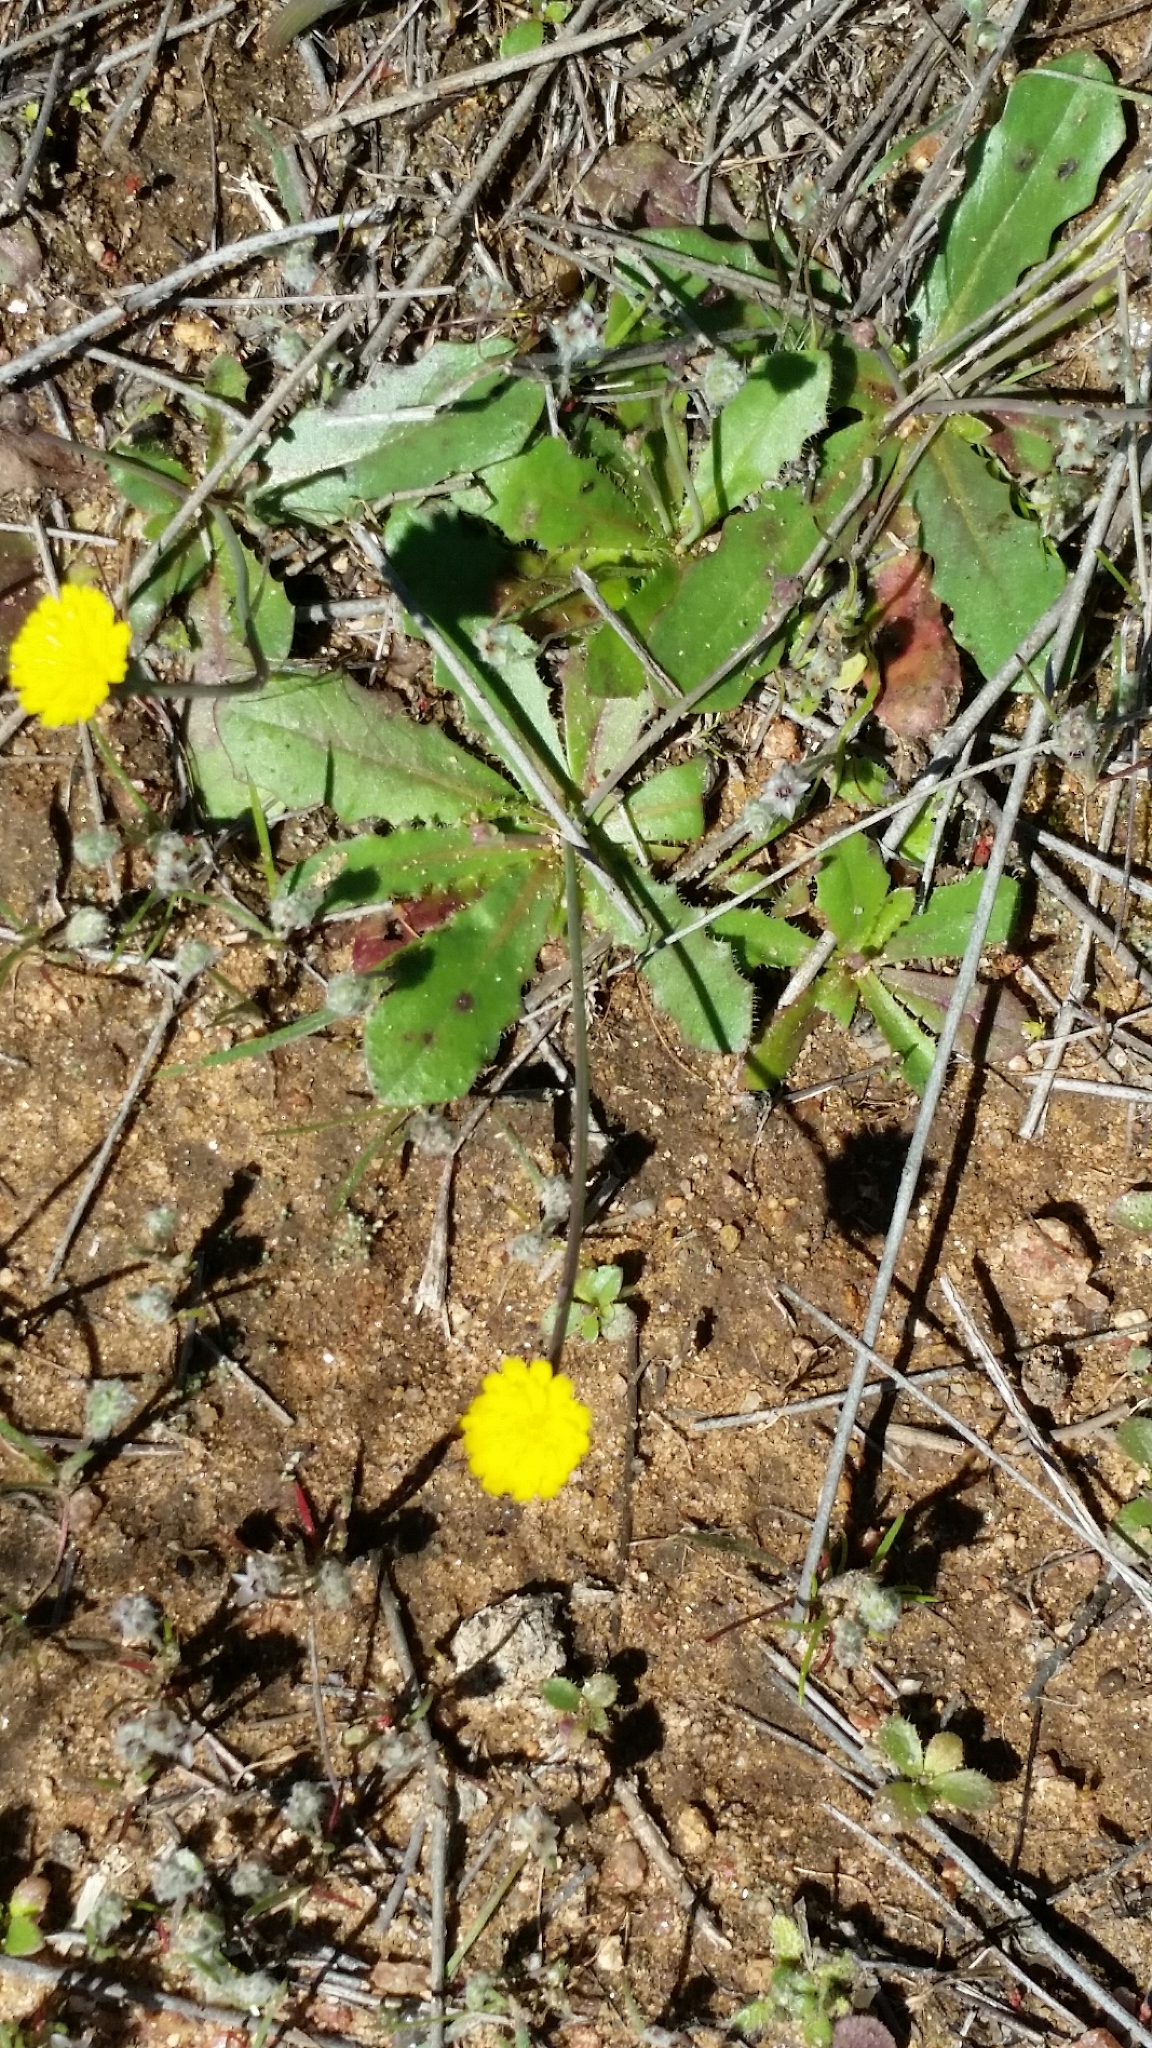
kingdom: Plantae
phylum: Tracheophyta
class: Magnoliopsida
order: Asterales
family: Asteraceae
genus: Hypochaeris
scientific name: Hypochaeris glabra
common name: Smooth catsear
